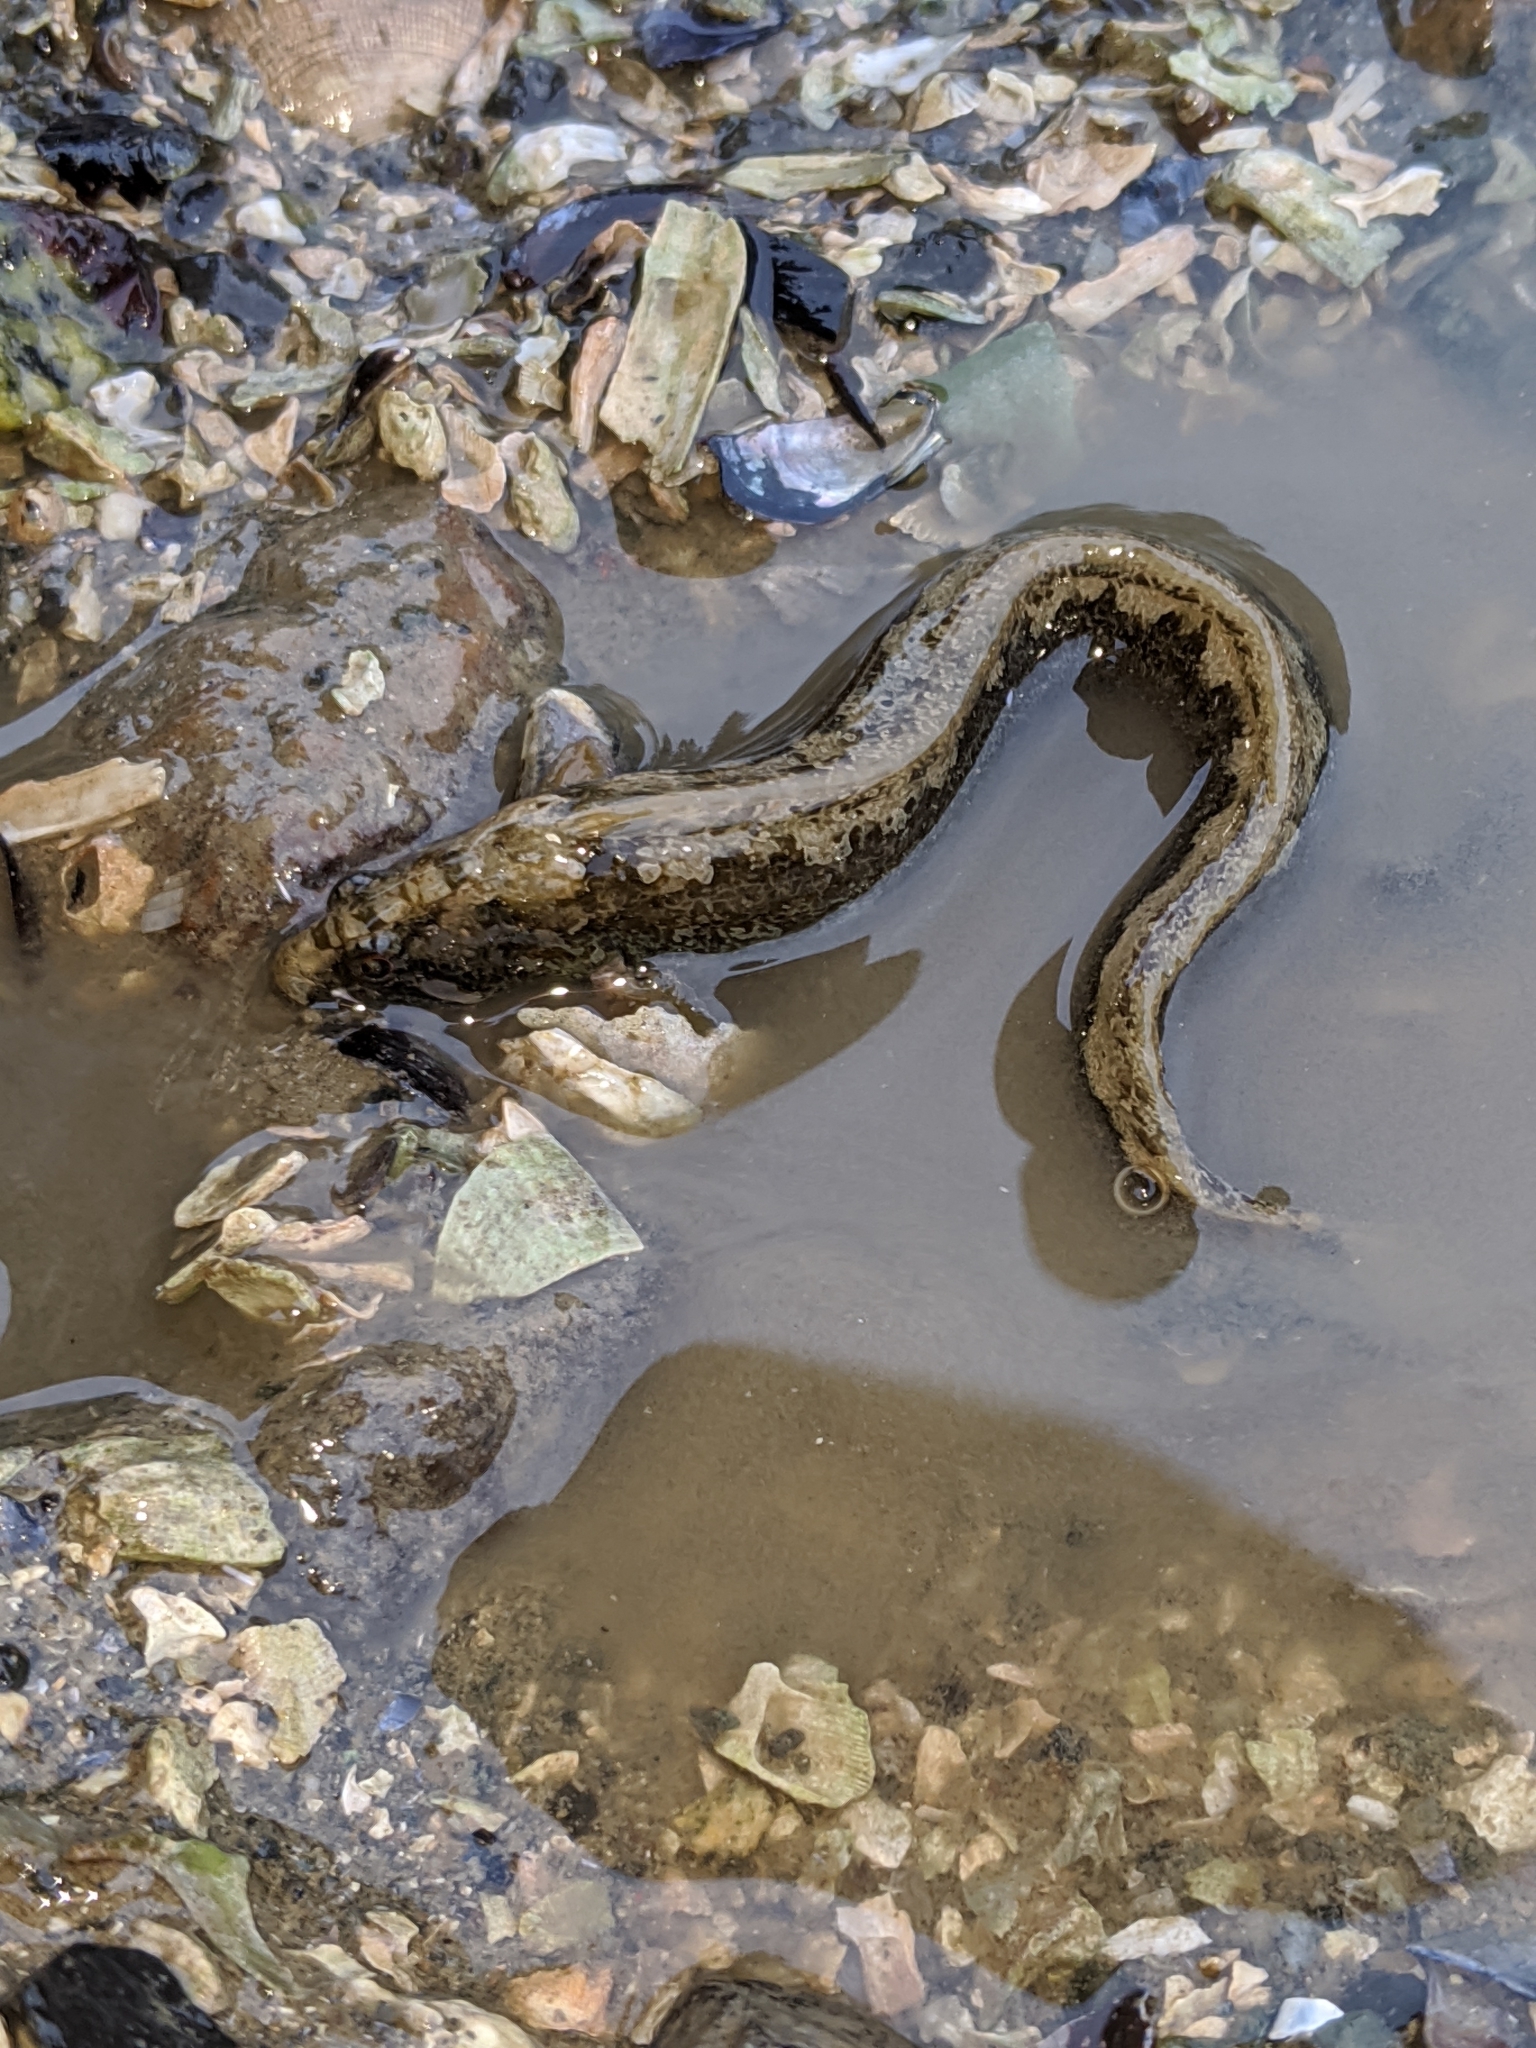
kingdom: Animalia
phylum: Chordata
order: Perciformes
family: Stichaeidae
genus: Anoplarchus
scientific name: Anoplarchus purpurescens
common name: High cockscomb
